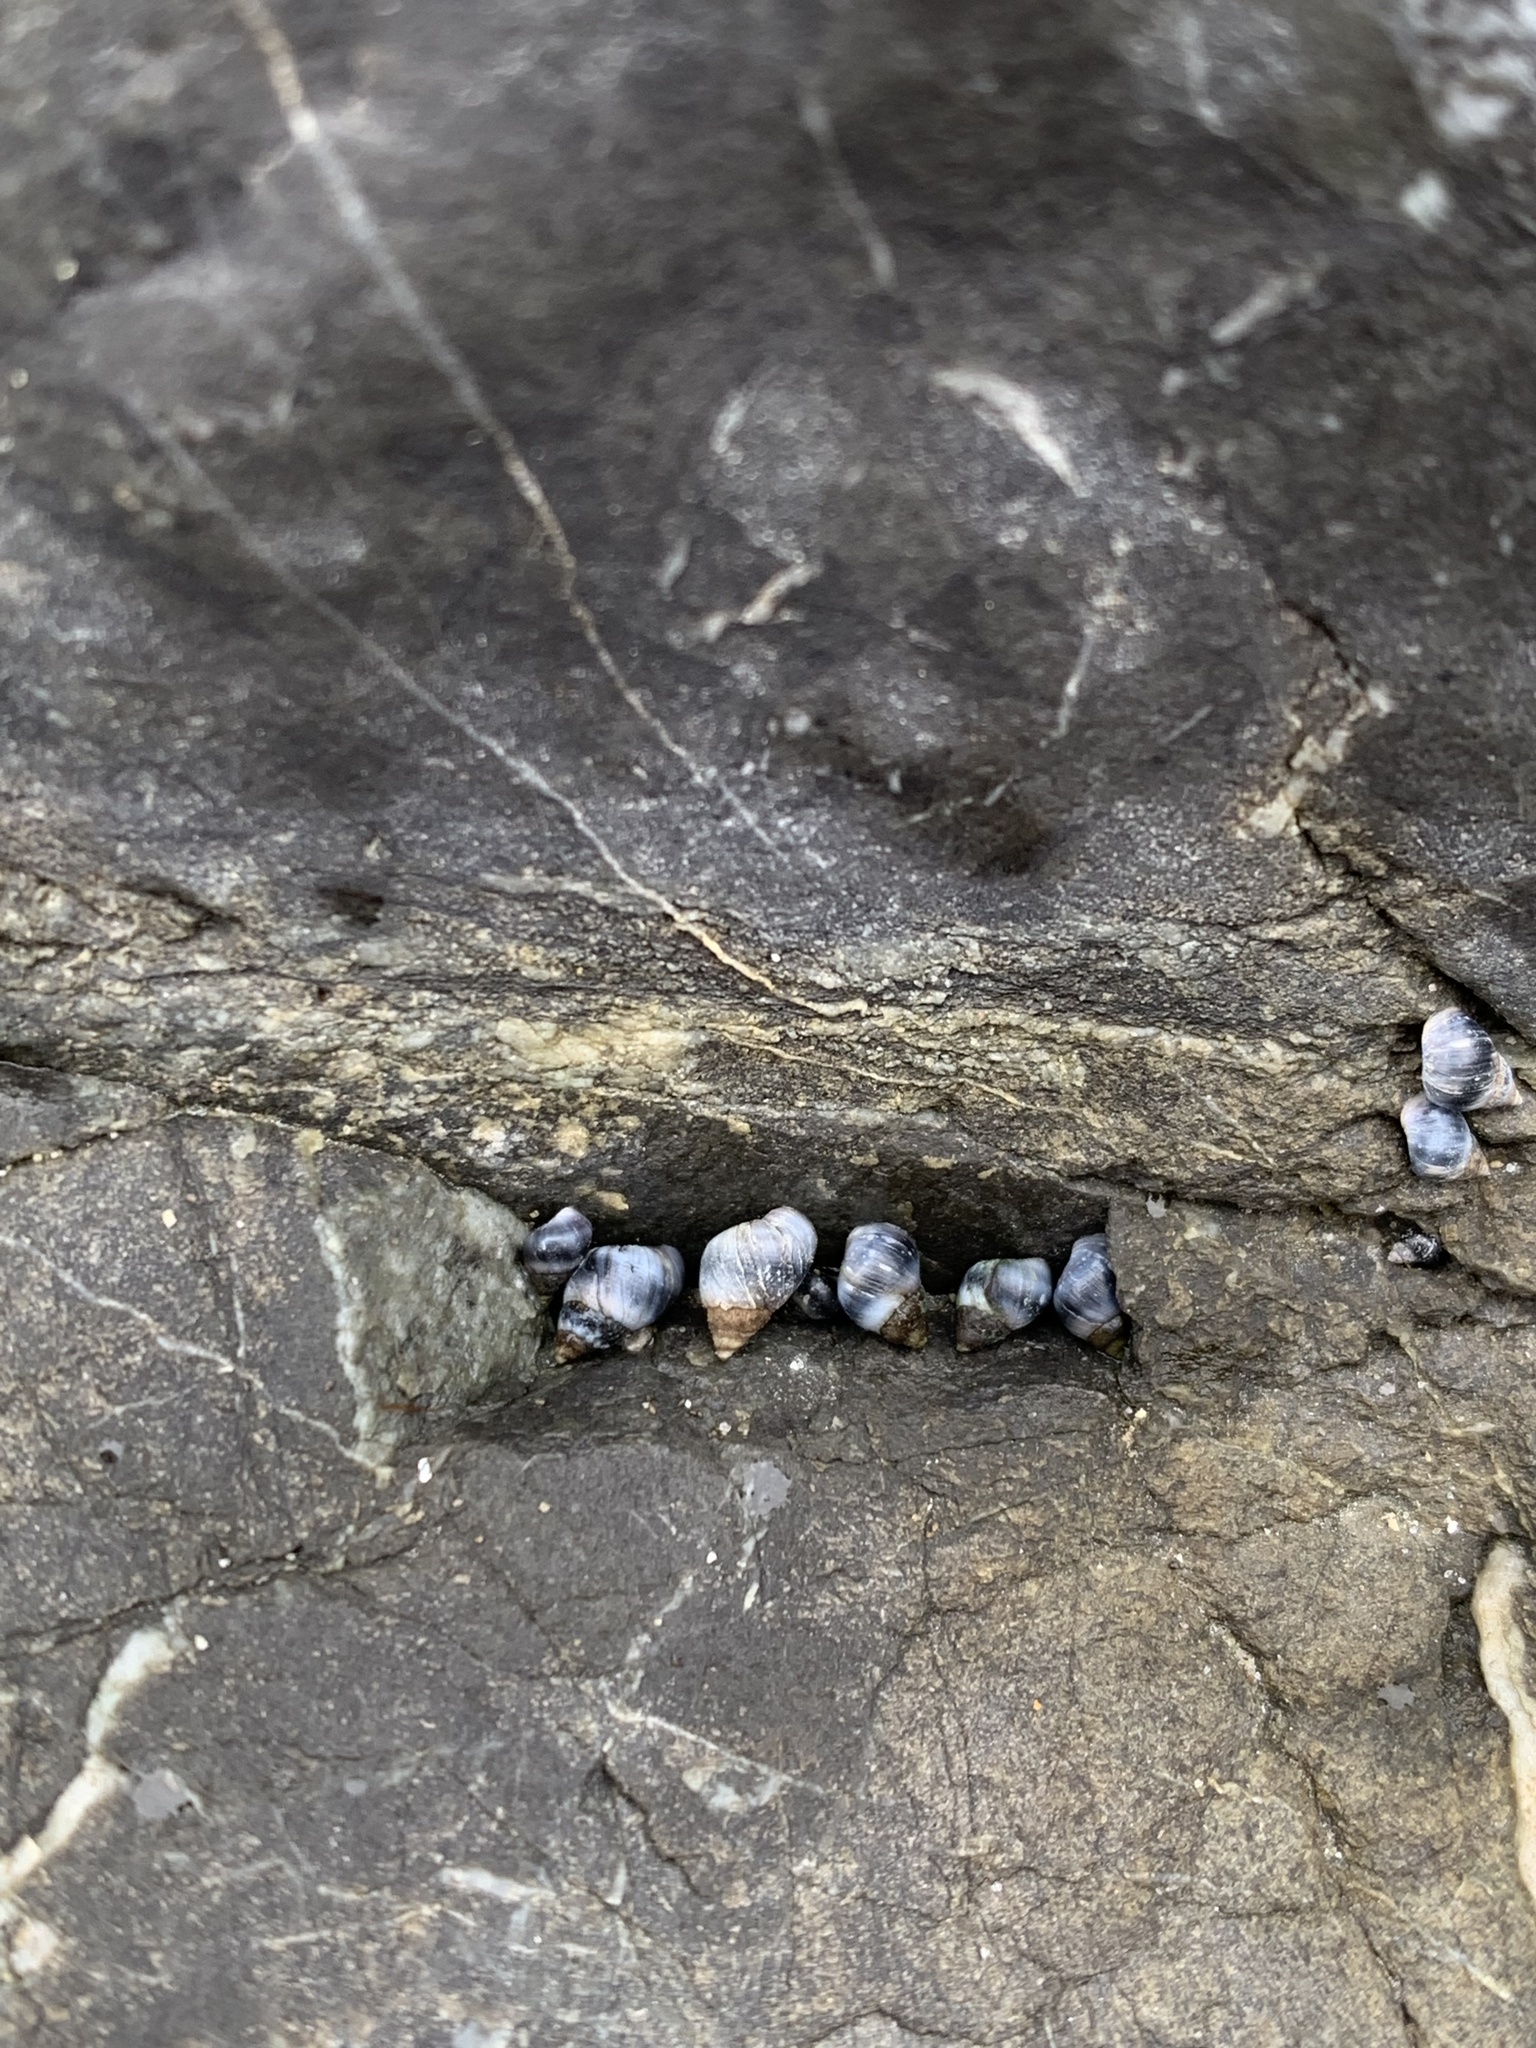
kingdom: Animalia
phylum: Mollusca
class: Gastropoda
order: Littorinimorpha
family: Littorinidae
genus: Austrolittorina
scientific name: Austrolittorina antipodum
